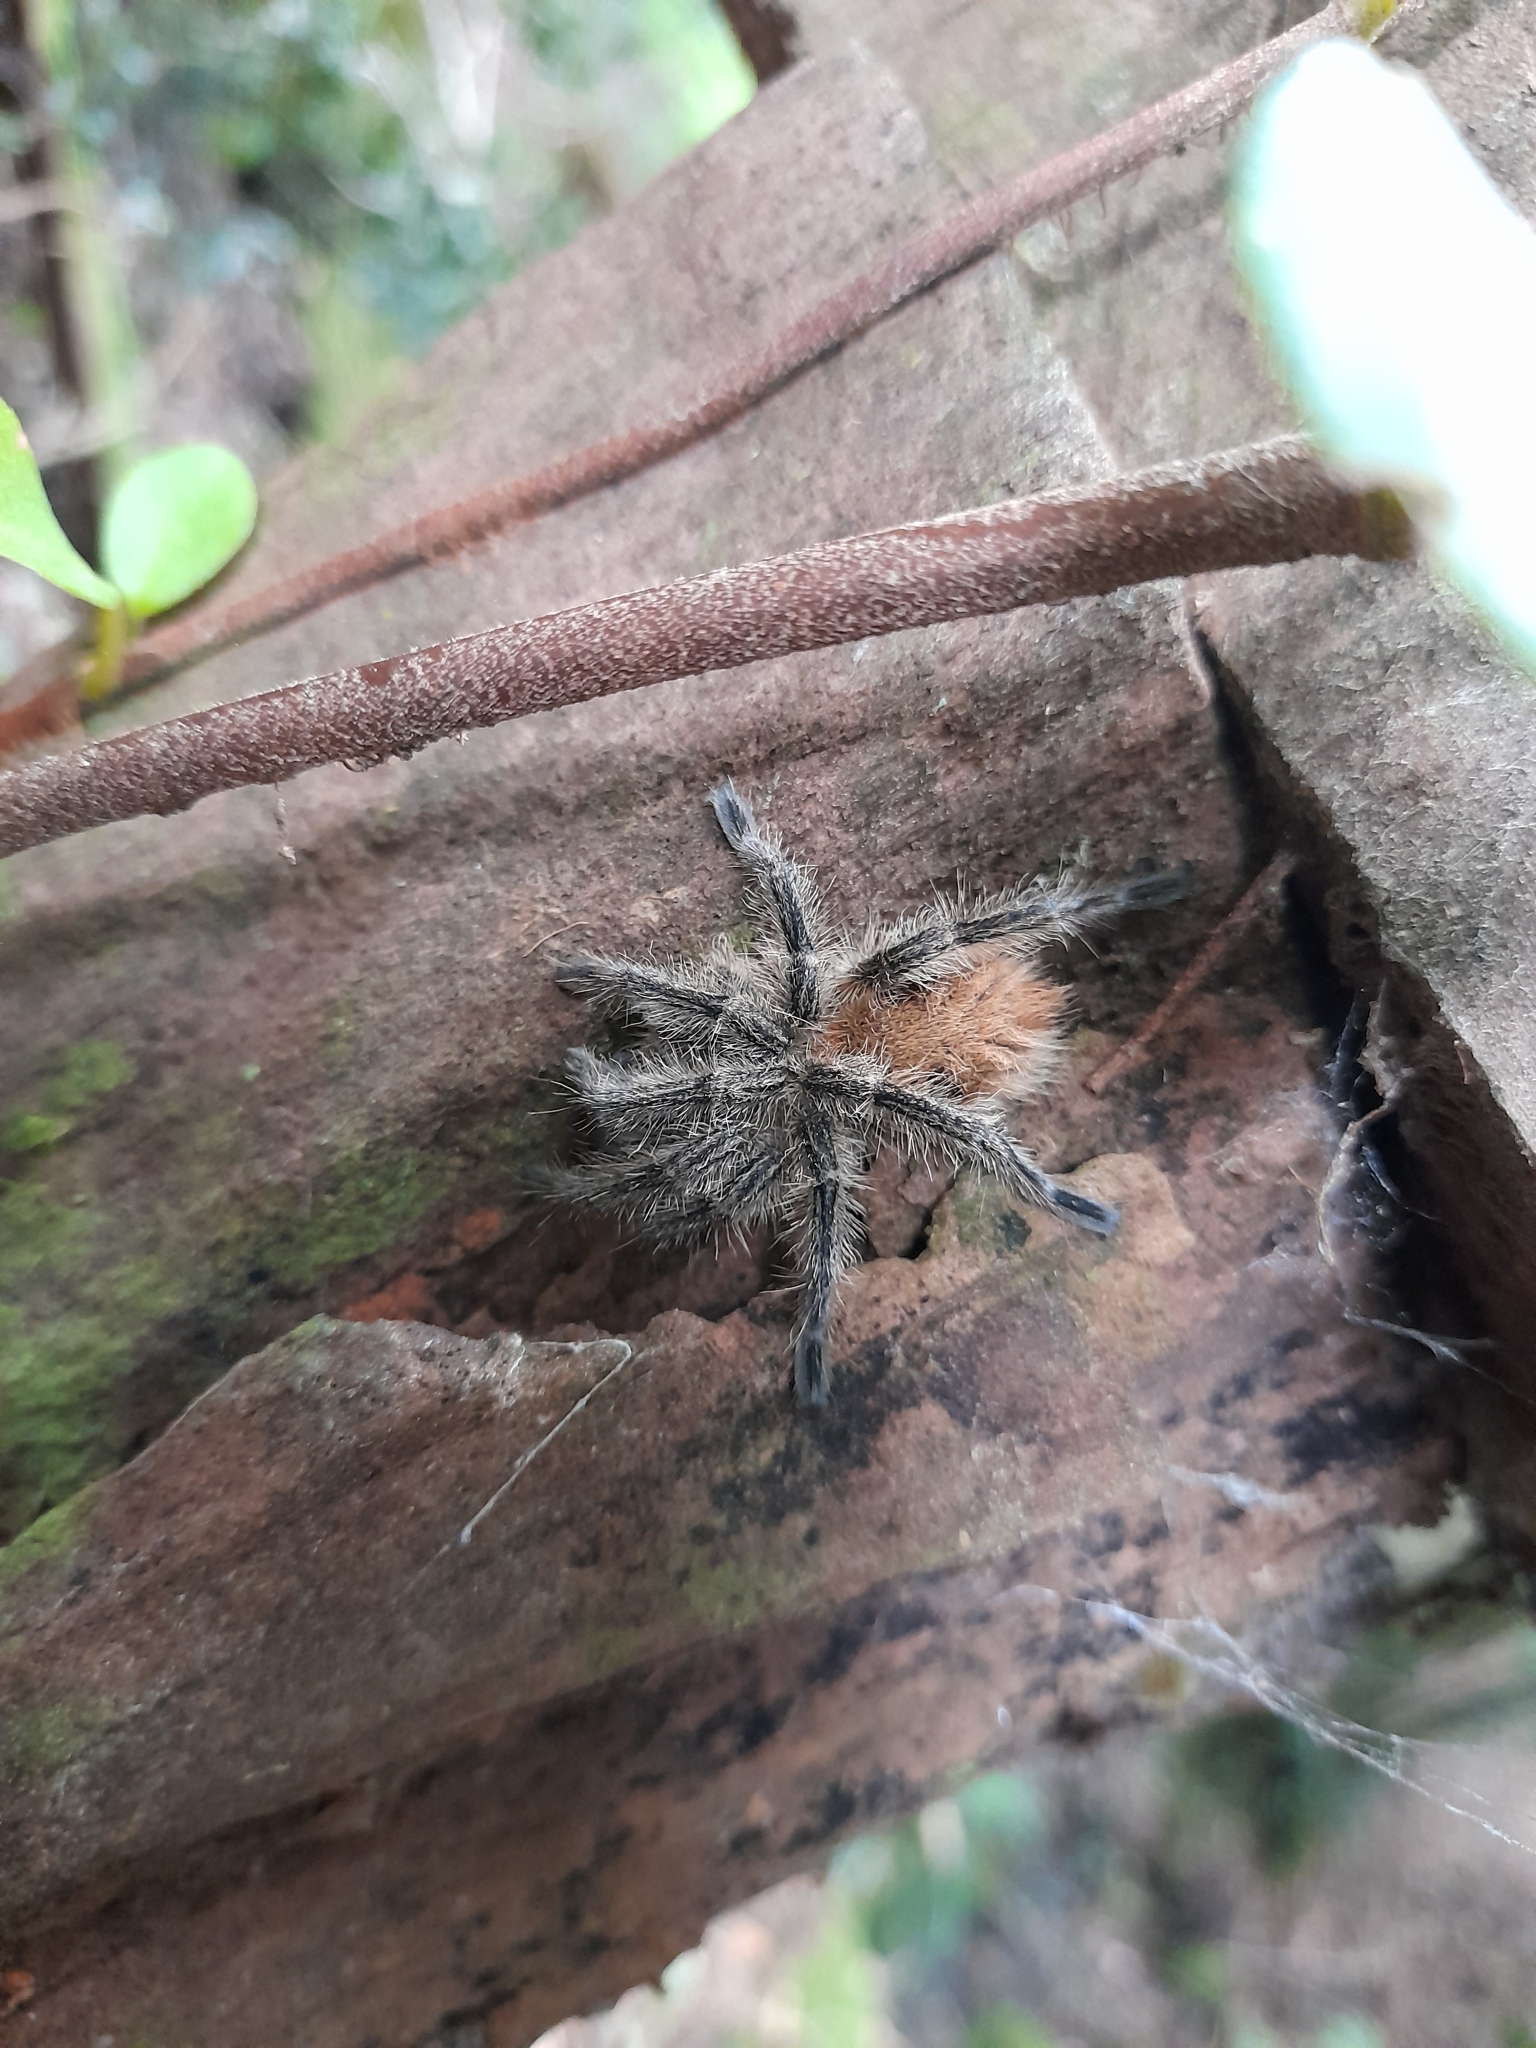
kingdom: Animalia
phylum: Arthropoda
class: Arachnida
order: Araneae
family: Theraphosidae
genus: Phrixotrichus
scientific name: Phrixotrichus vulpinus
